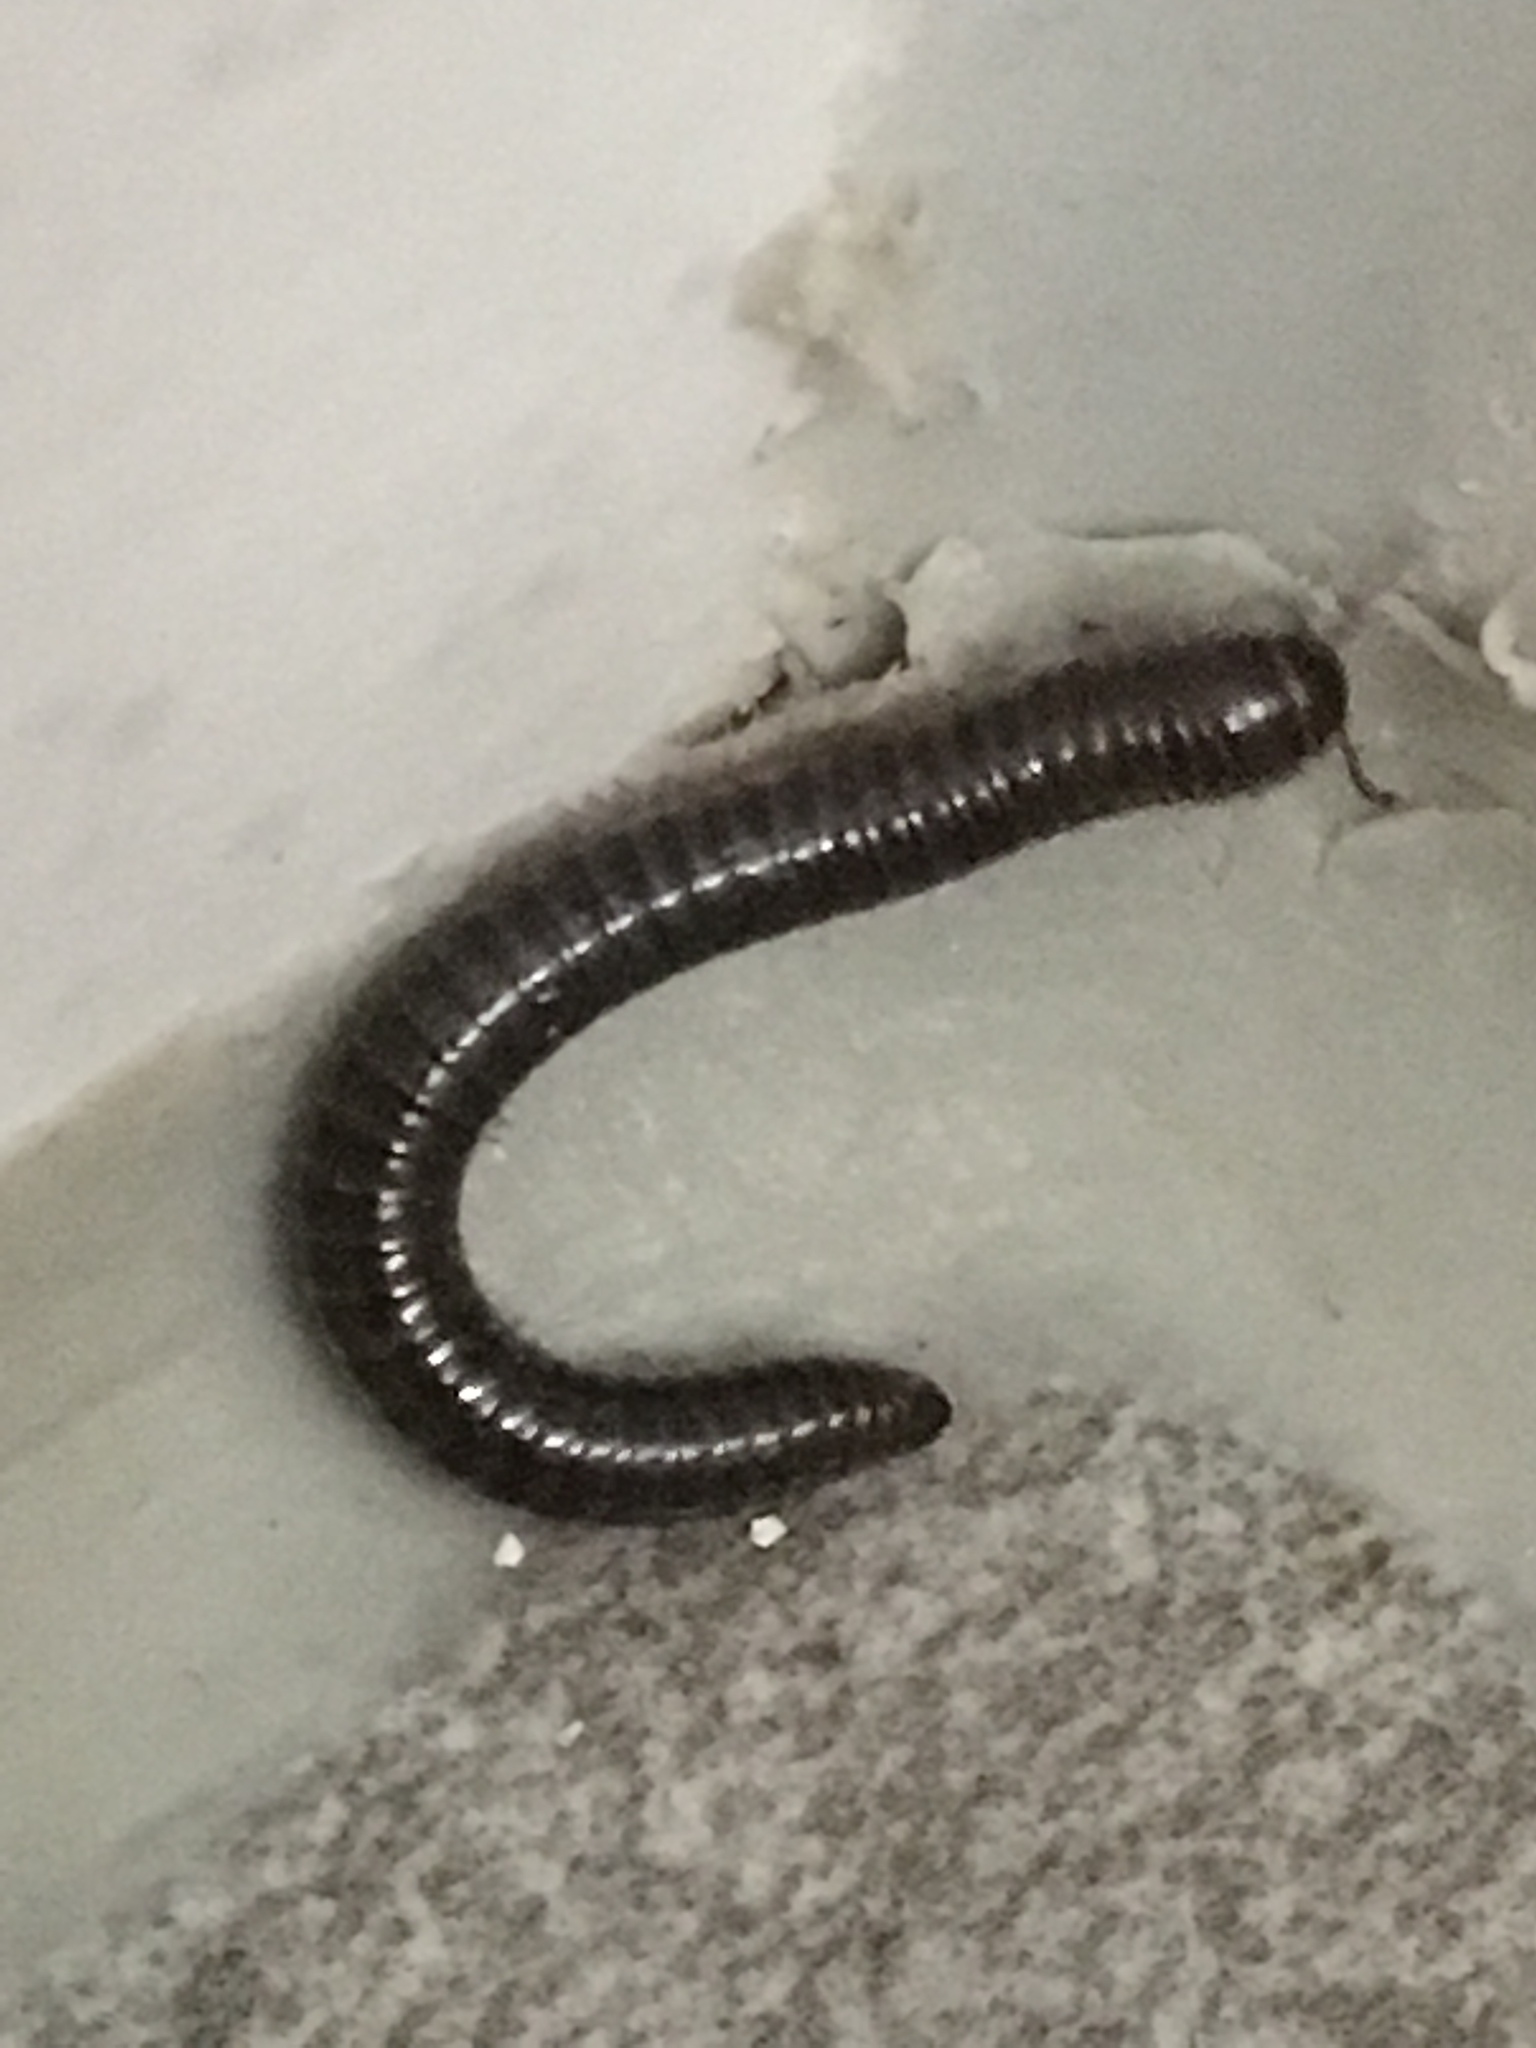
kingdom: Animalia
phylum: Arthropoda
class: Diplopoda
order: Julida
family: Julidae
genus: Cylindroiulus
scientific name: Cylindroiulus caeruleocinctus
